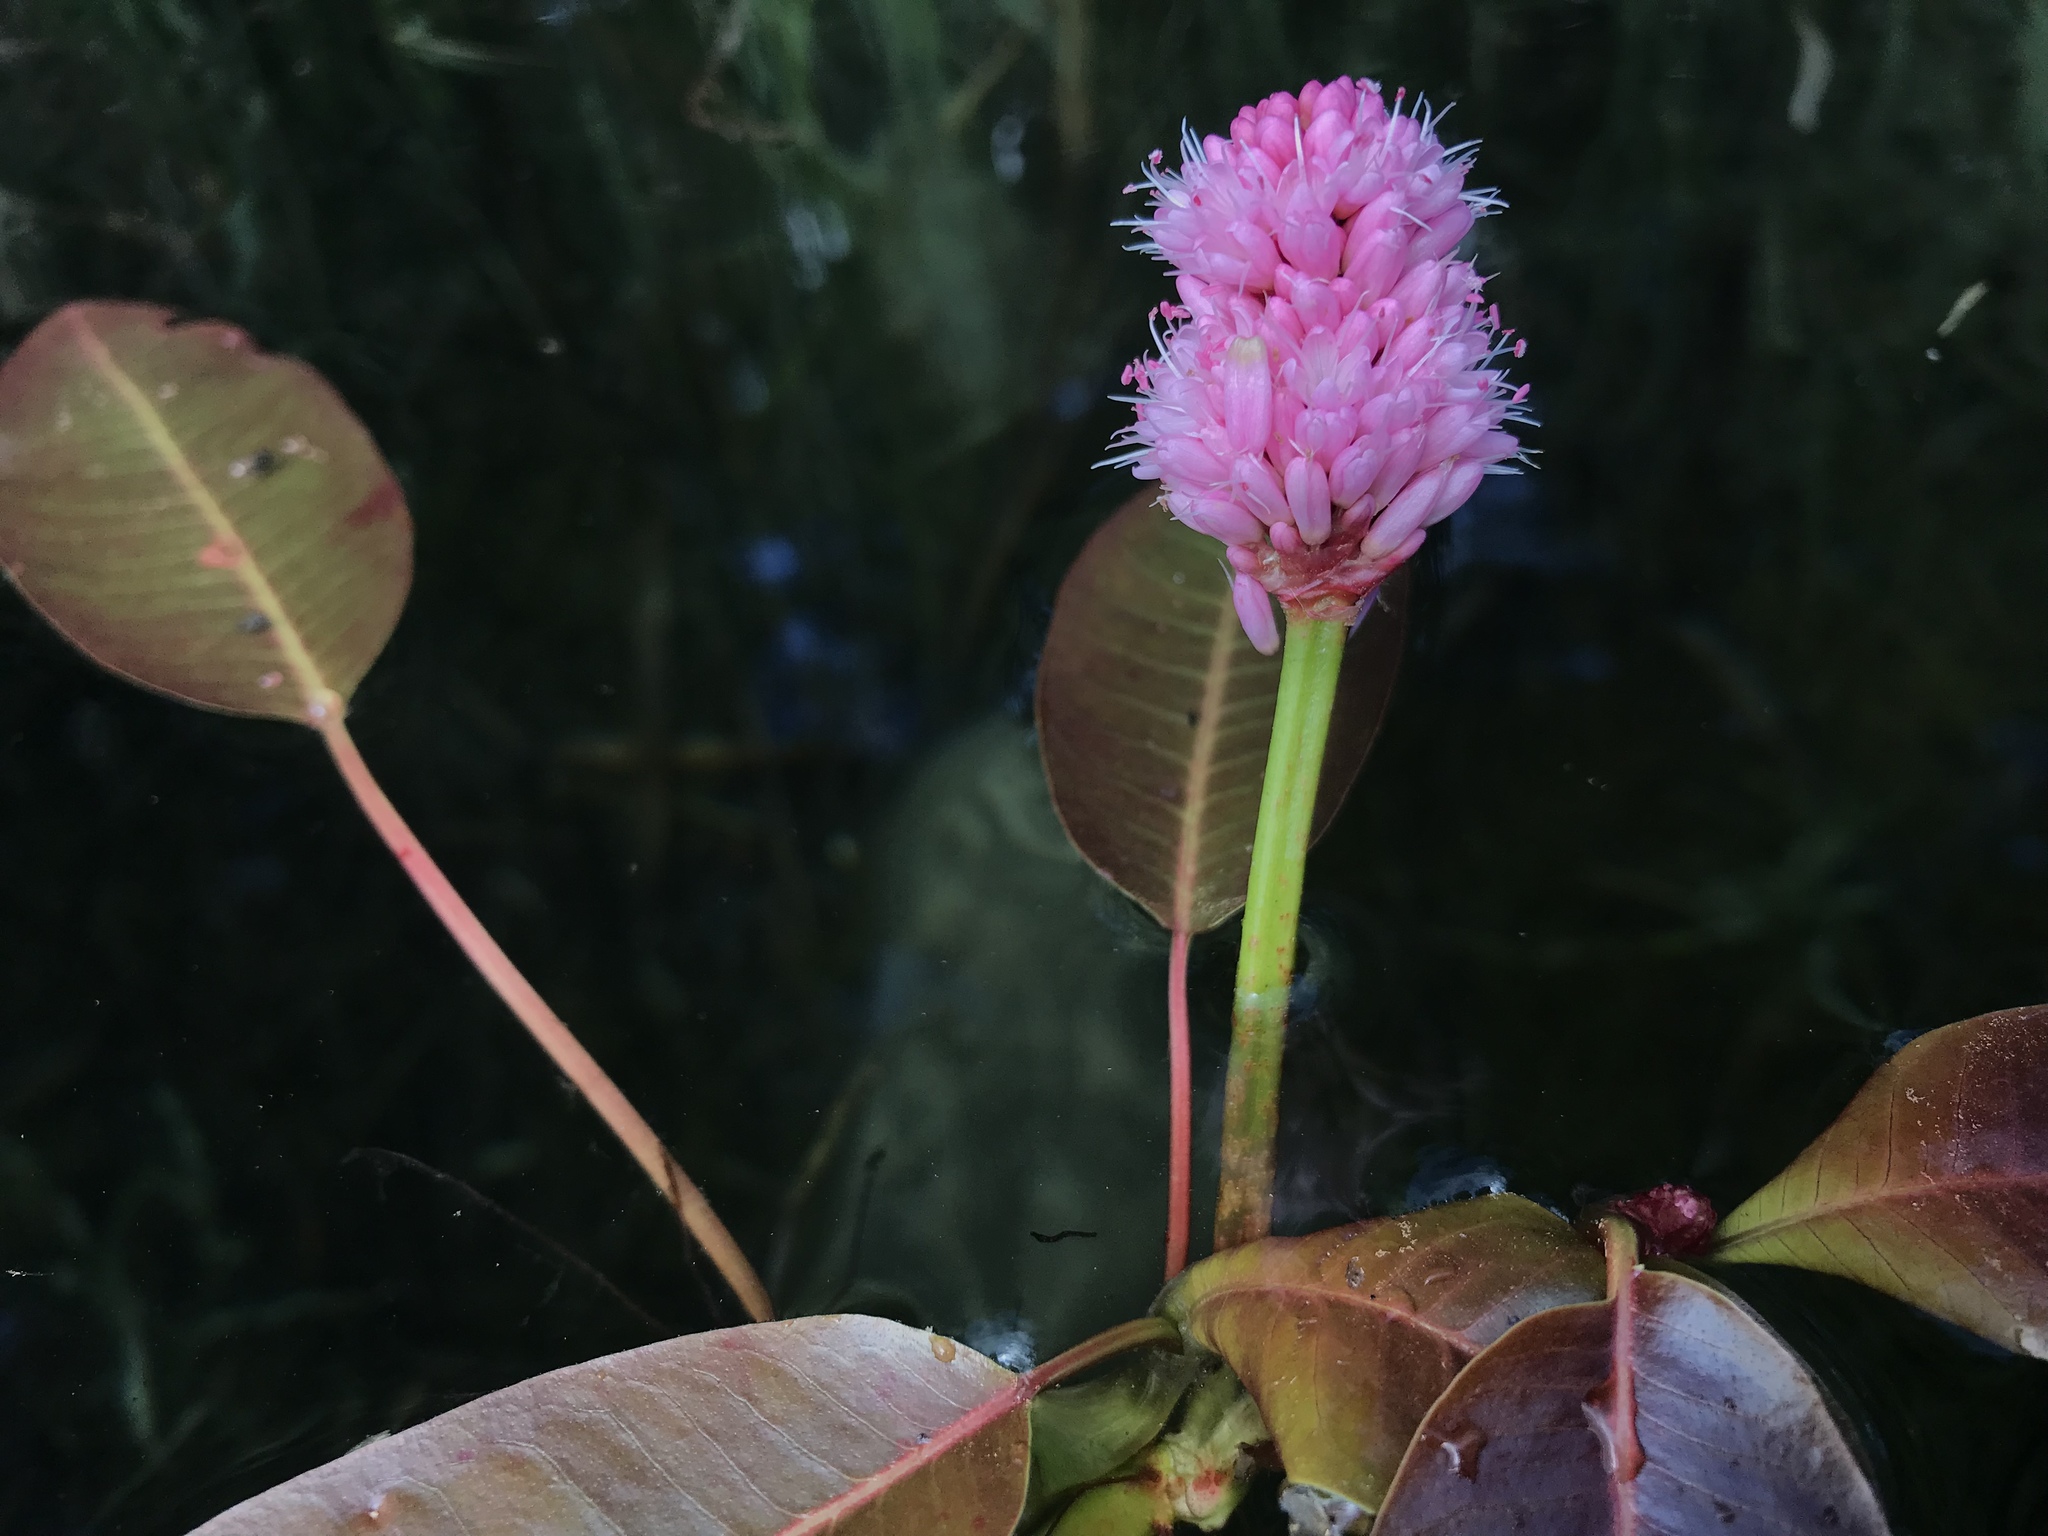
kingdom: Plantae
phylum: Tracheophyta
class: Magnoliopsida
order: Caryophyllales
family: Polygonaceae
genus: Persicaria
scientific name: Persicaria amphibia
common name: Amphibious bistort
